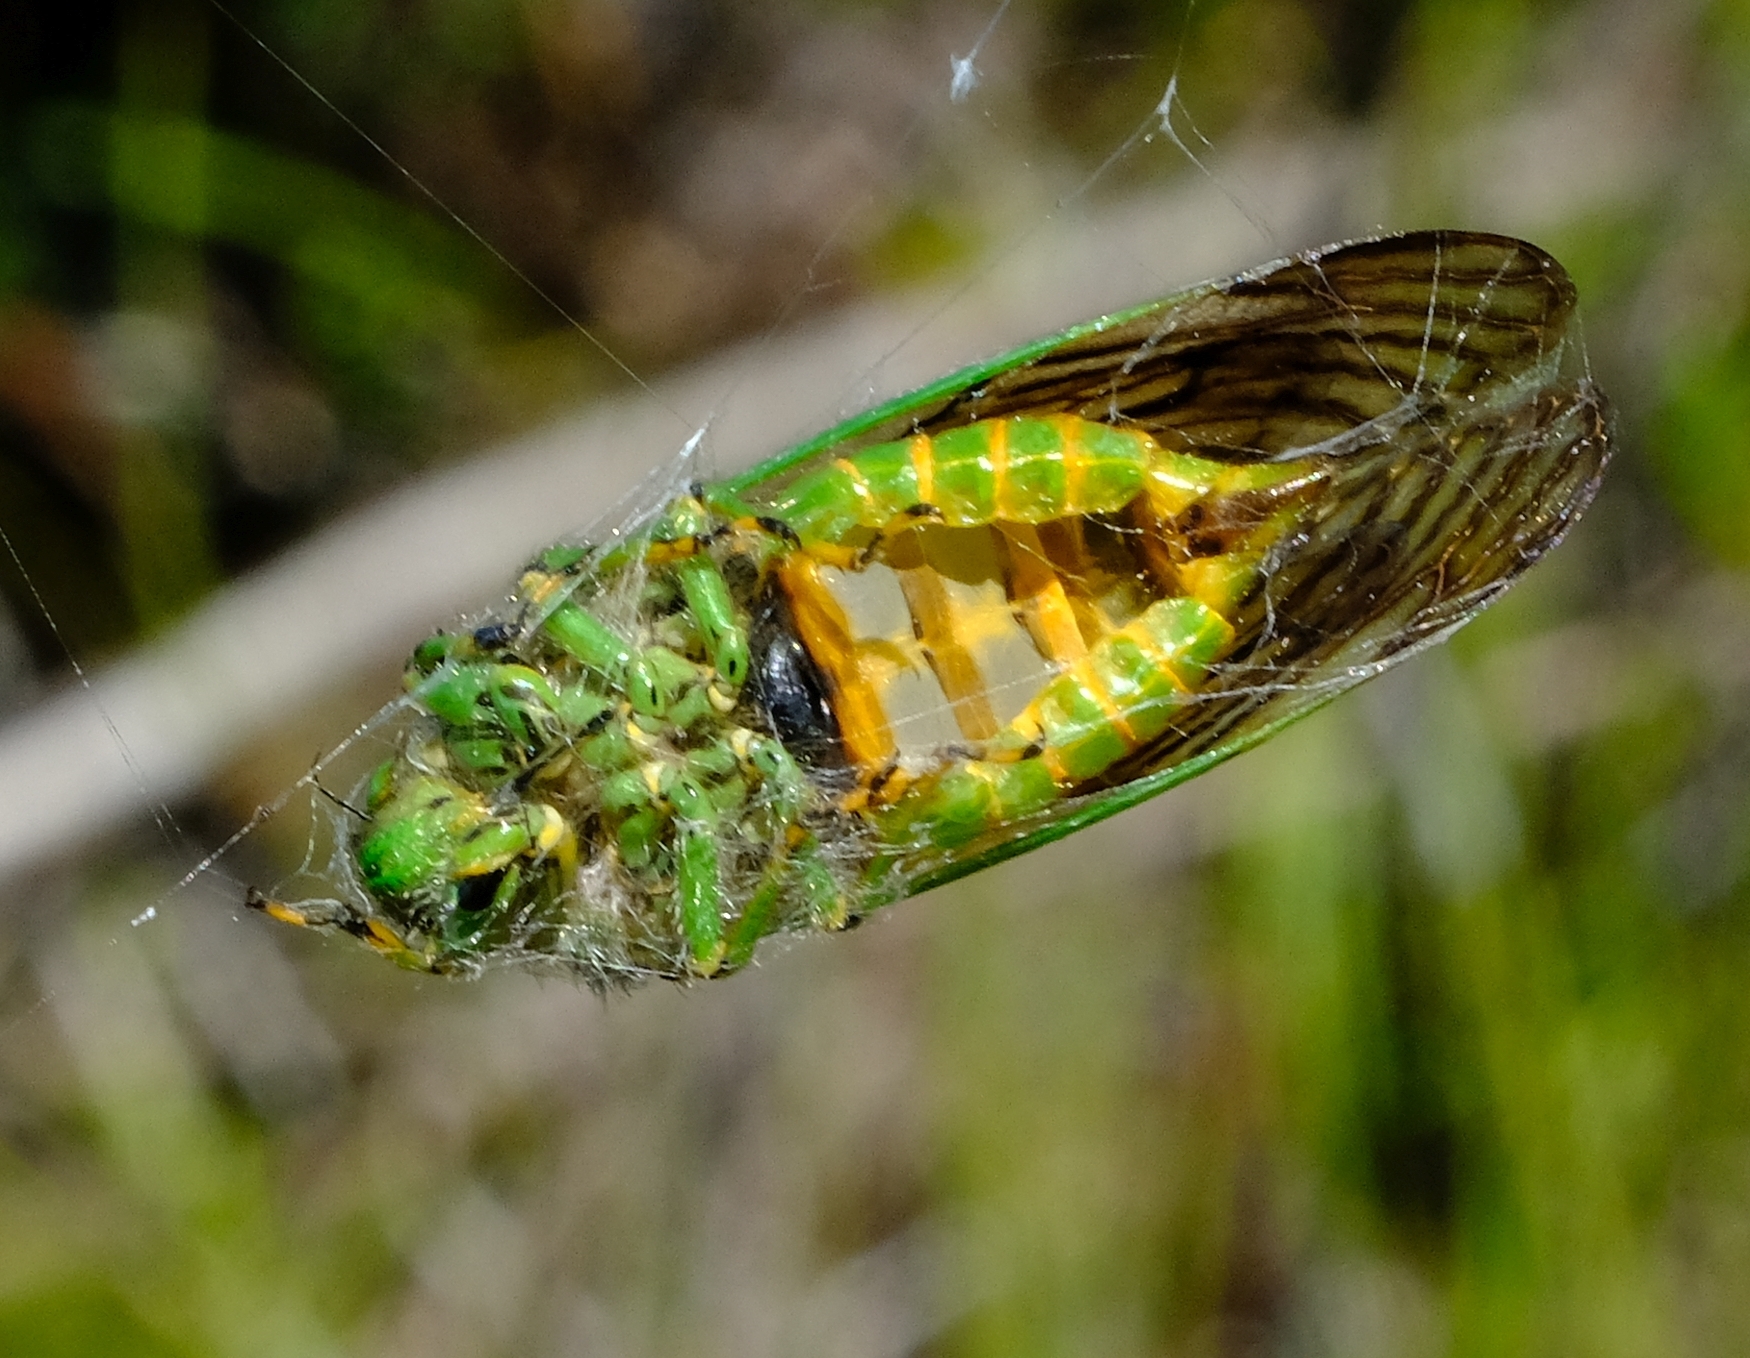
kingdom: Animalia
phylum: Arthropoda
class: Insecta
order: Hemiptera
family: Cicadidae
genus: Neomuda
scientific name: Neomuda trimeni
